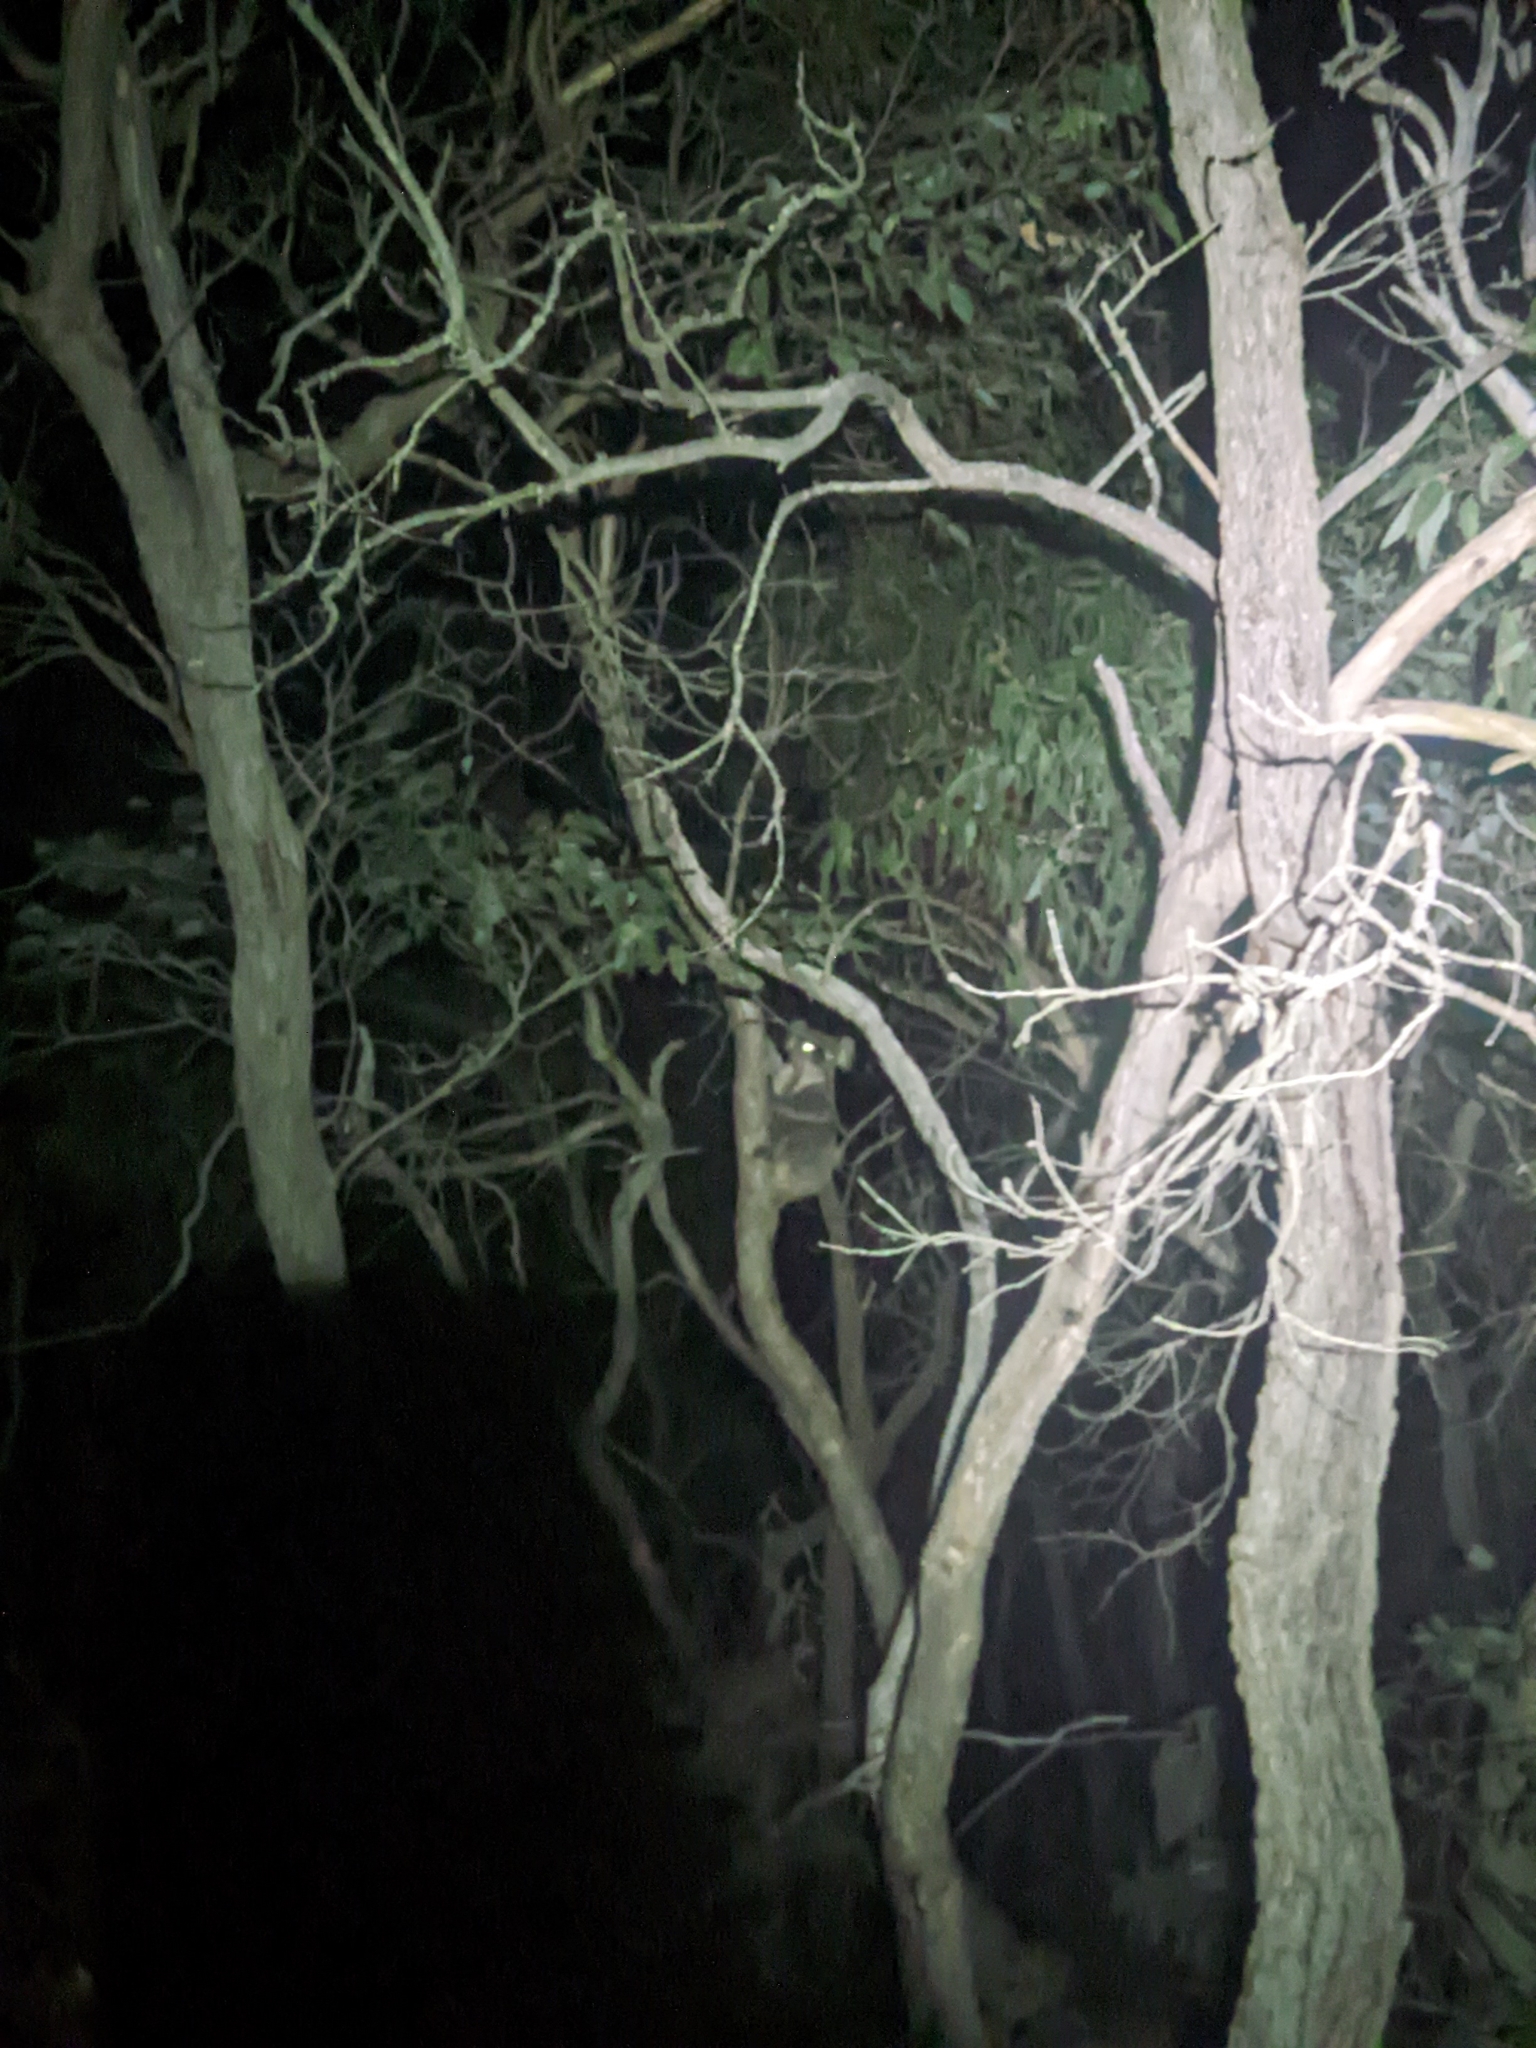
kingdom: Animalia
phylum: Chordata
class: Mammalia
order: Diprotodontia
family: Phascolarctidae
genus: Phascolarctos
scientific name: Phascolarctos cinereus
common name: Koala
